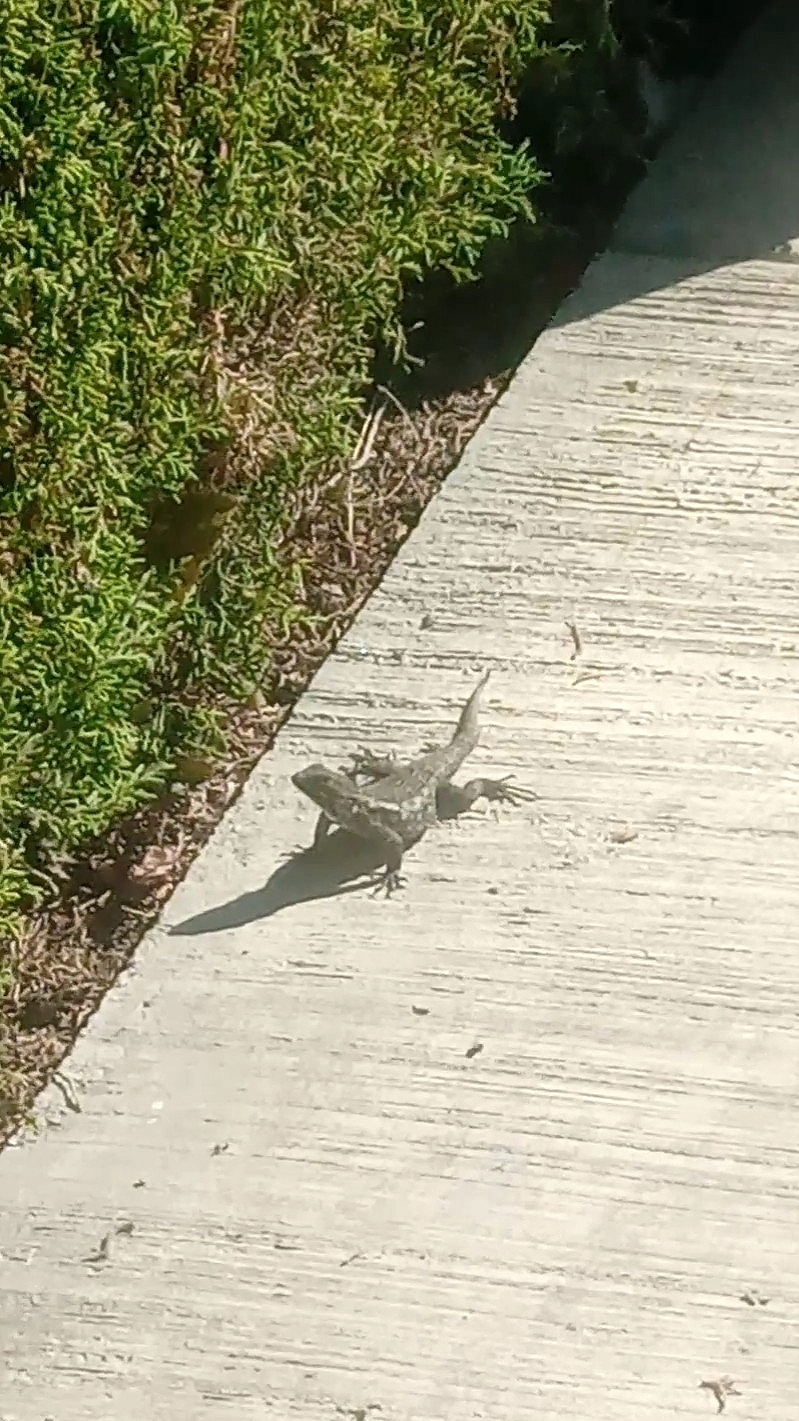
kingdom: Animalia
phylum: Chordata
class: Squamata
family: Phrynosomatidae
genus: Sceloporus
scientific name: Sceloporus spinosus
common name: Blue-spotted spiny lizard [caeruleopunctatus]
